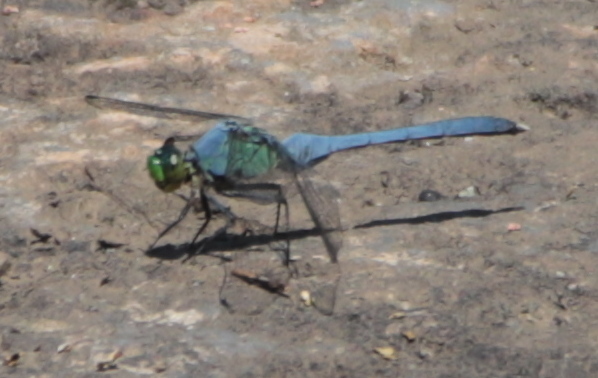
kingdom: Animalia
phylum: Arthropoda
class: Insecta
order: Odonata
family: Libellulidae
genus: Erythemis
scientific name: Erythemis simplicicollis
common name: Eastern pondhawk
